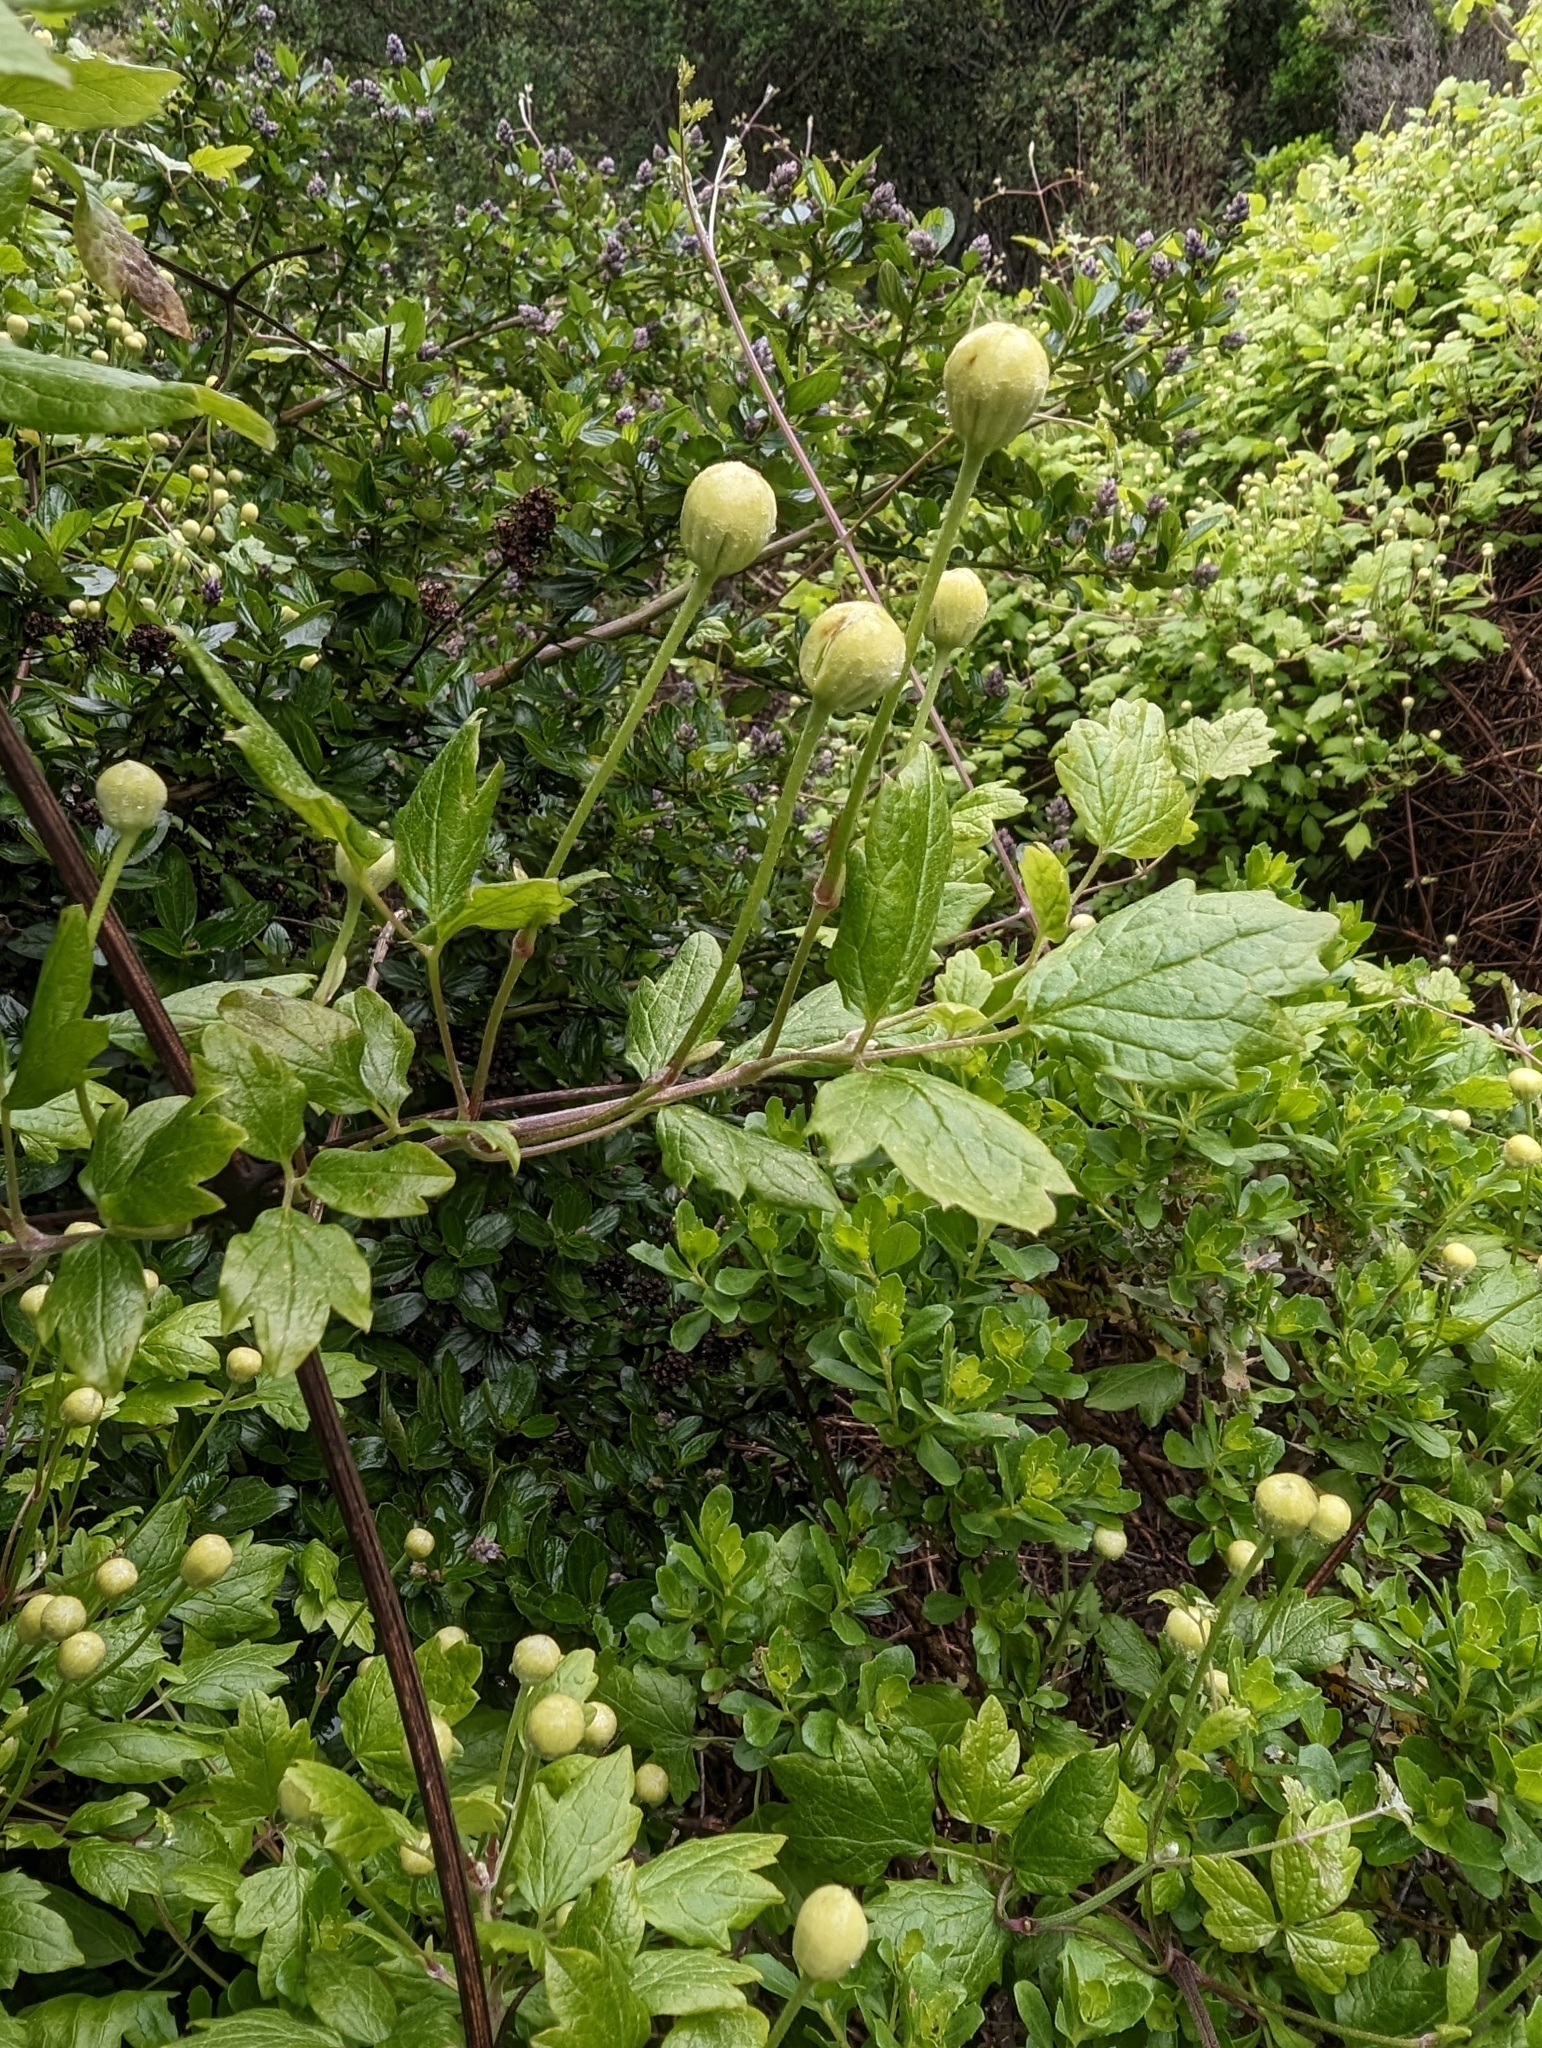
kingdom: Plantae
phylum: Tracheophyta
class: Magnoliopsida
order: Ranunculales
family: Ranunculaceae
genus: Clematis
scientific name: Clematis lasiantha
